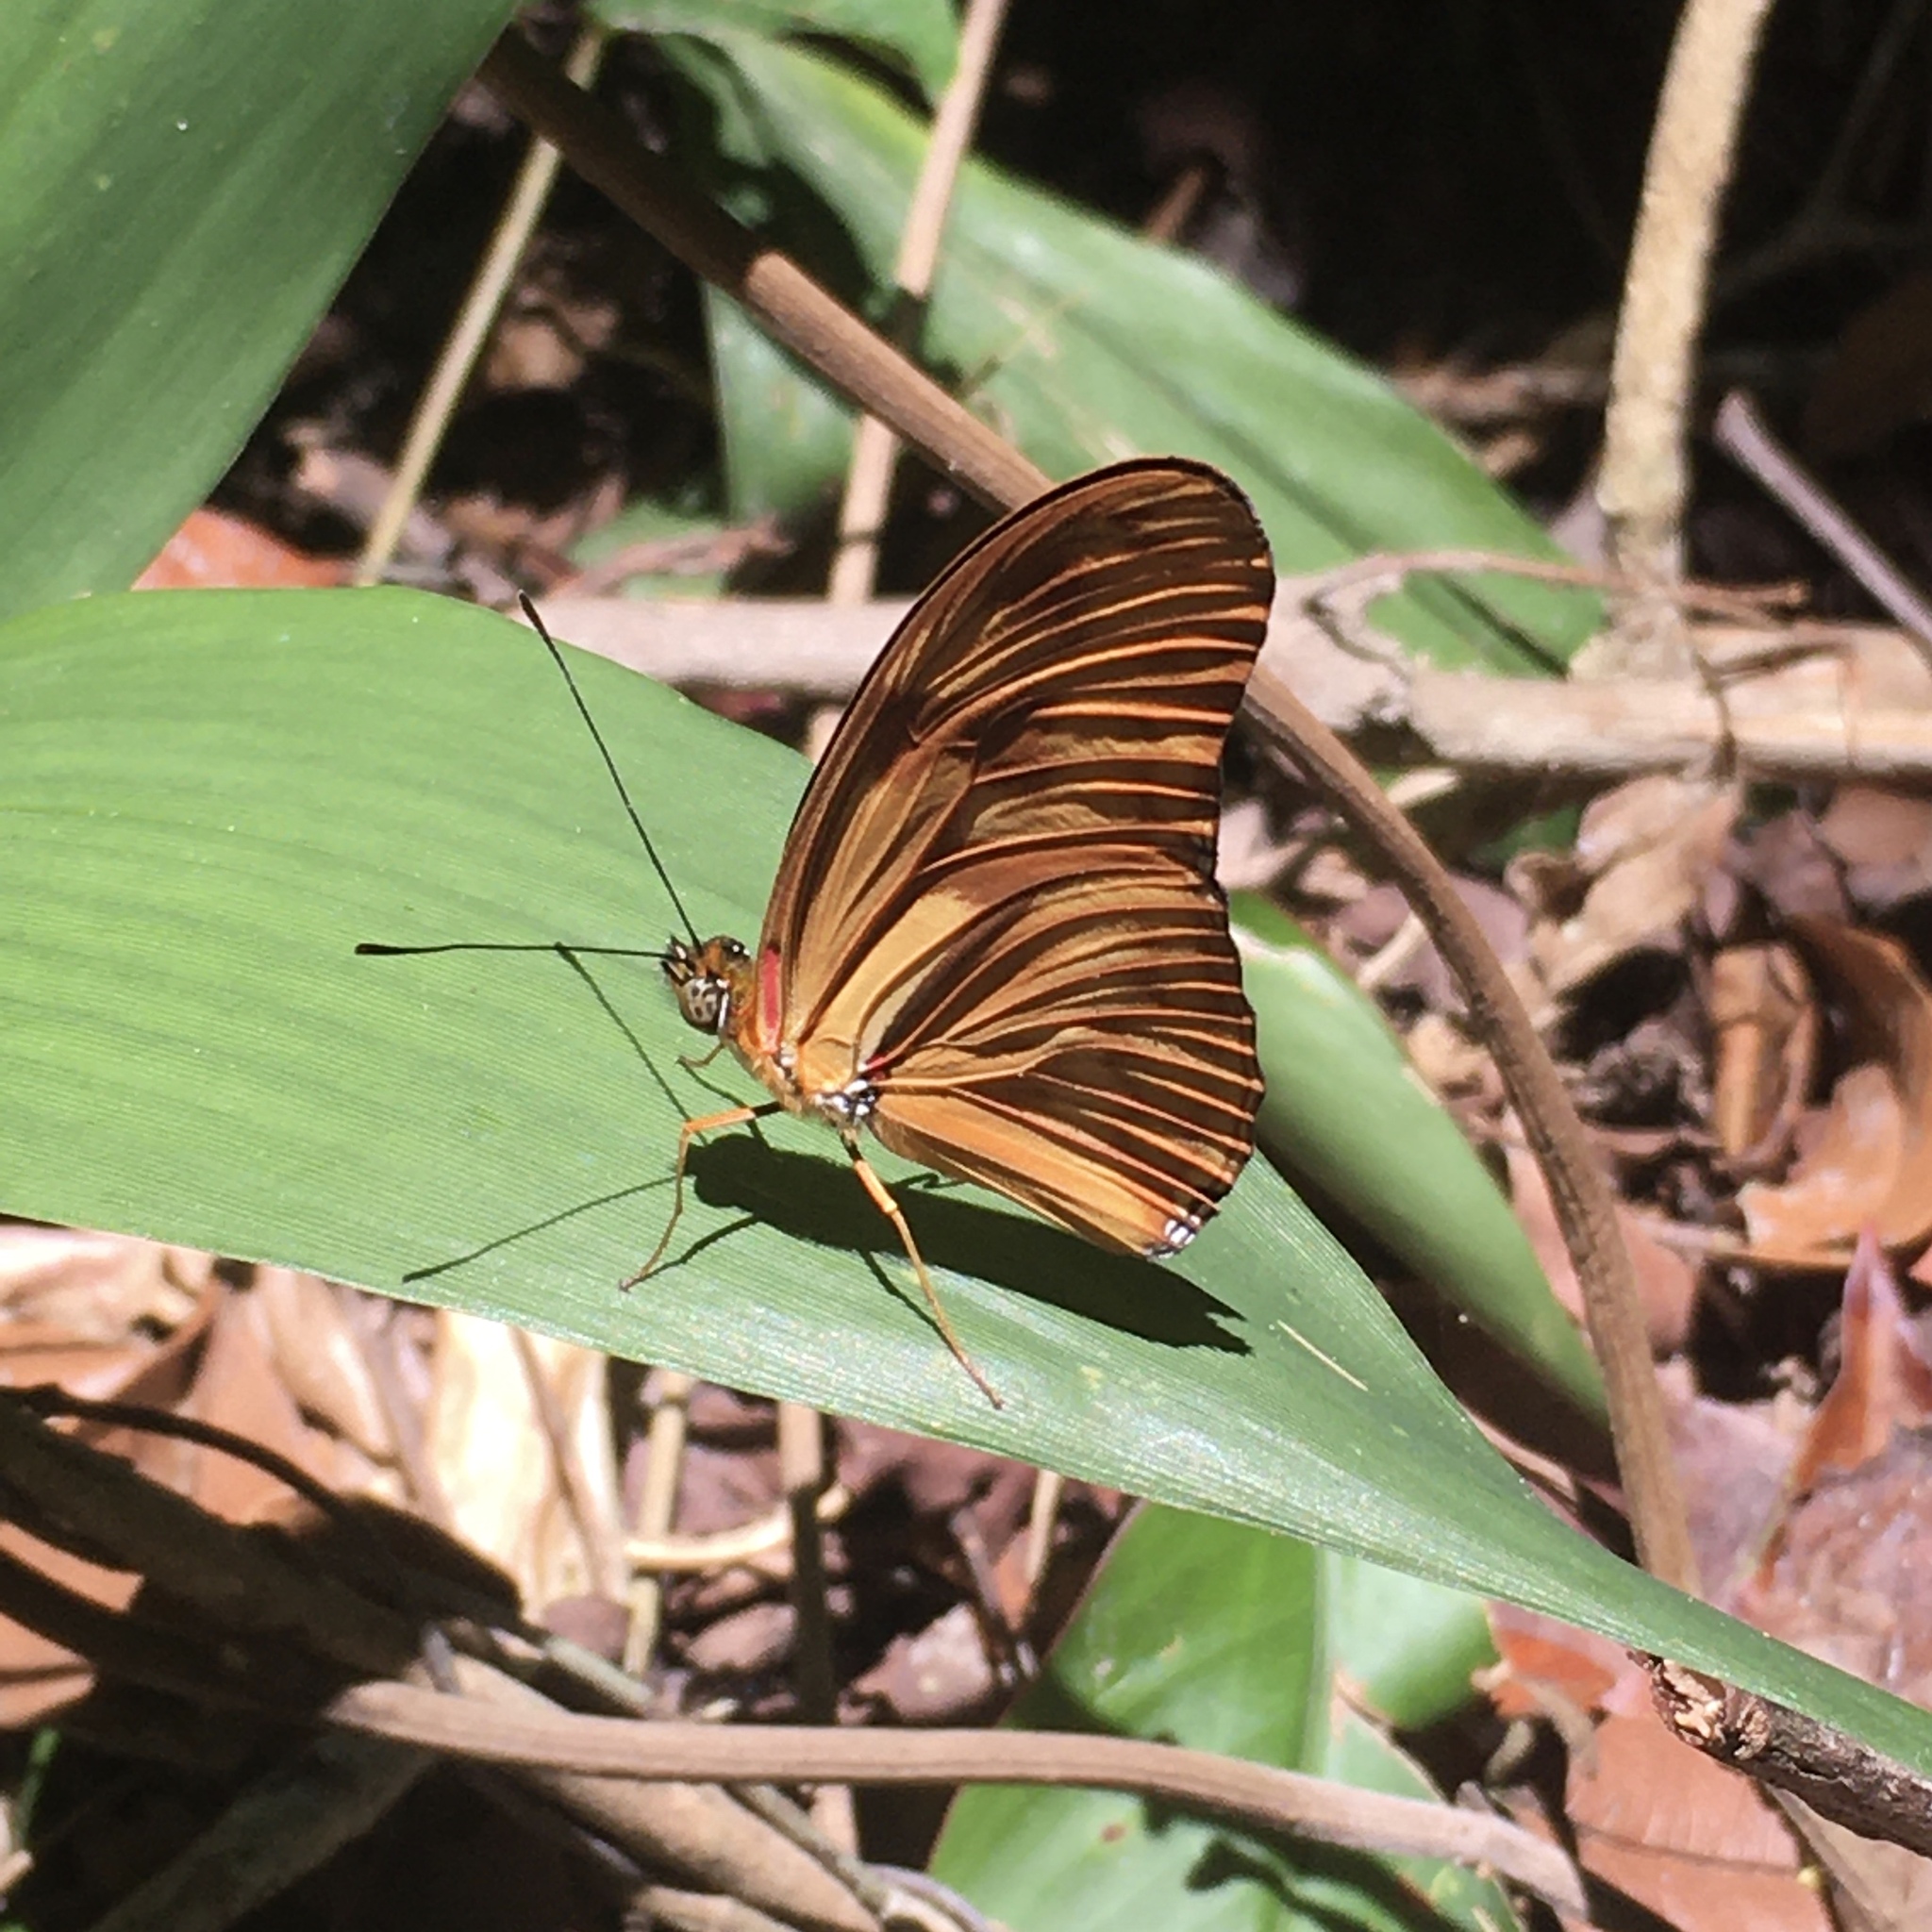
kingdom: Animalia
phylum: Arthropoda
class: Insecta
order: Lepidoptera
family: Nymphalidae
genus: Dryas
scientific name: Dryas iulia
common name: Flambeau
